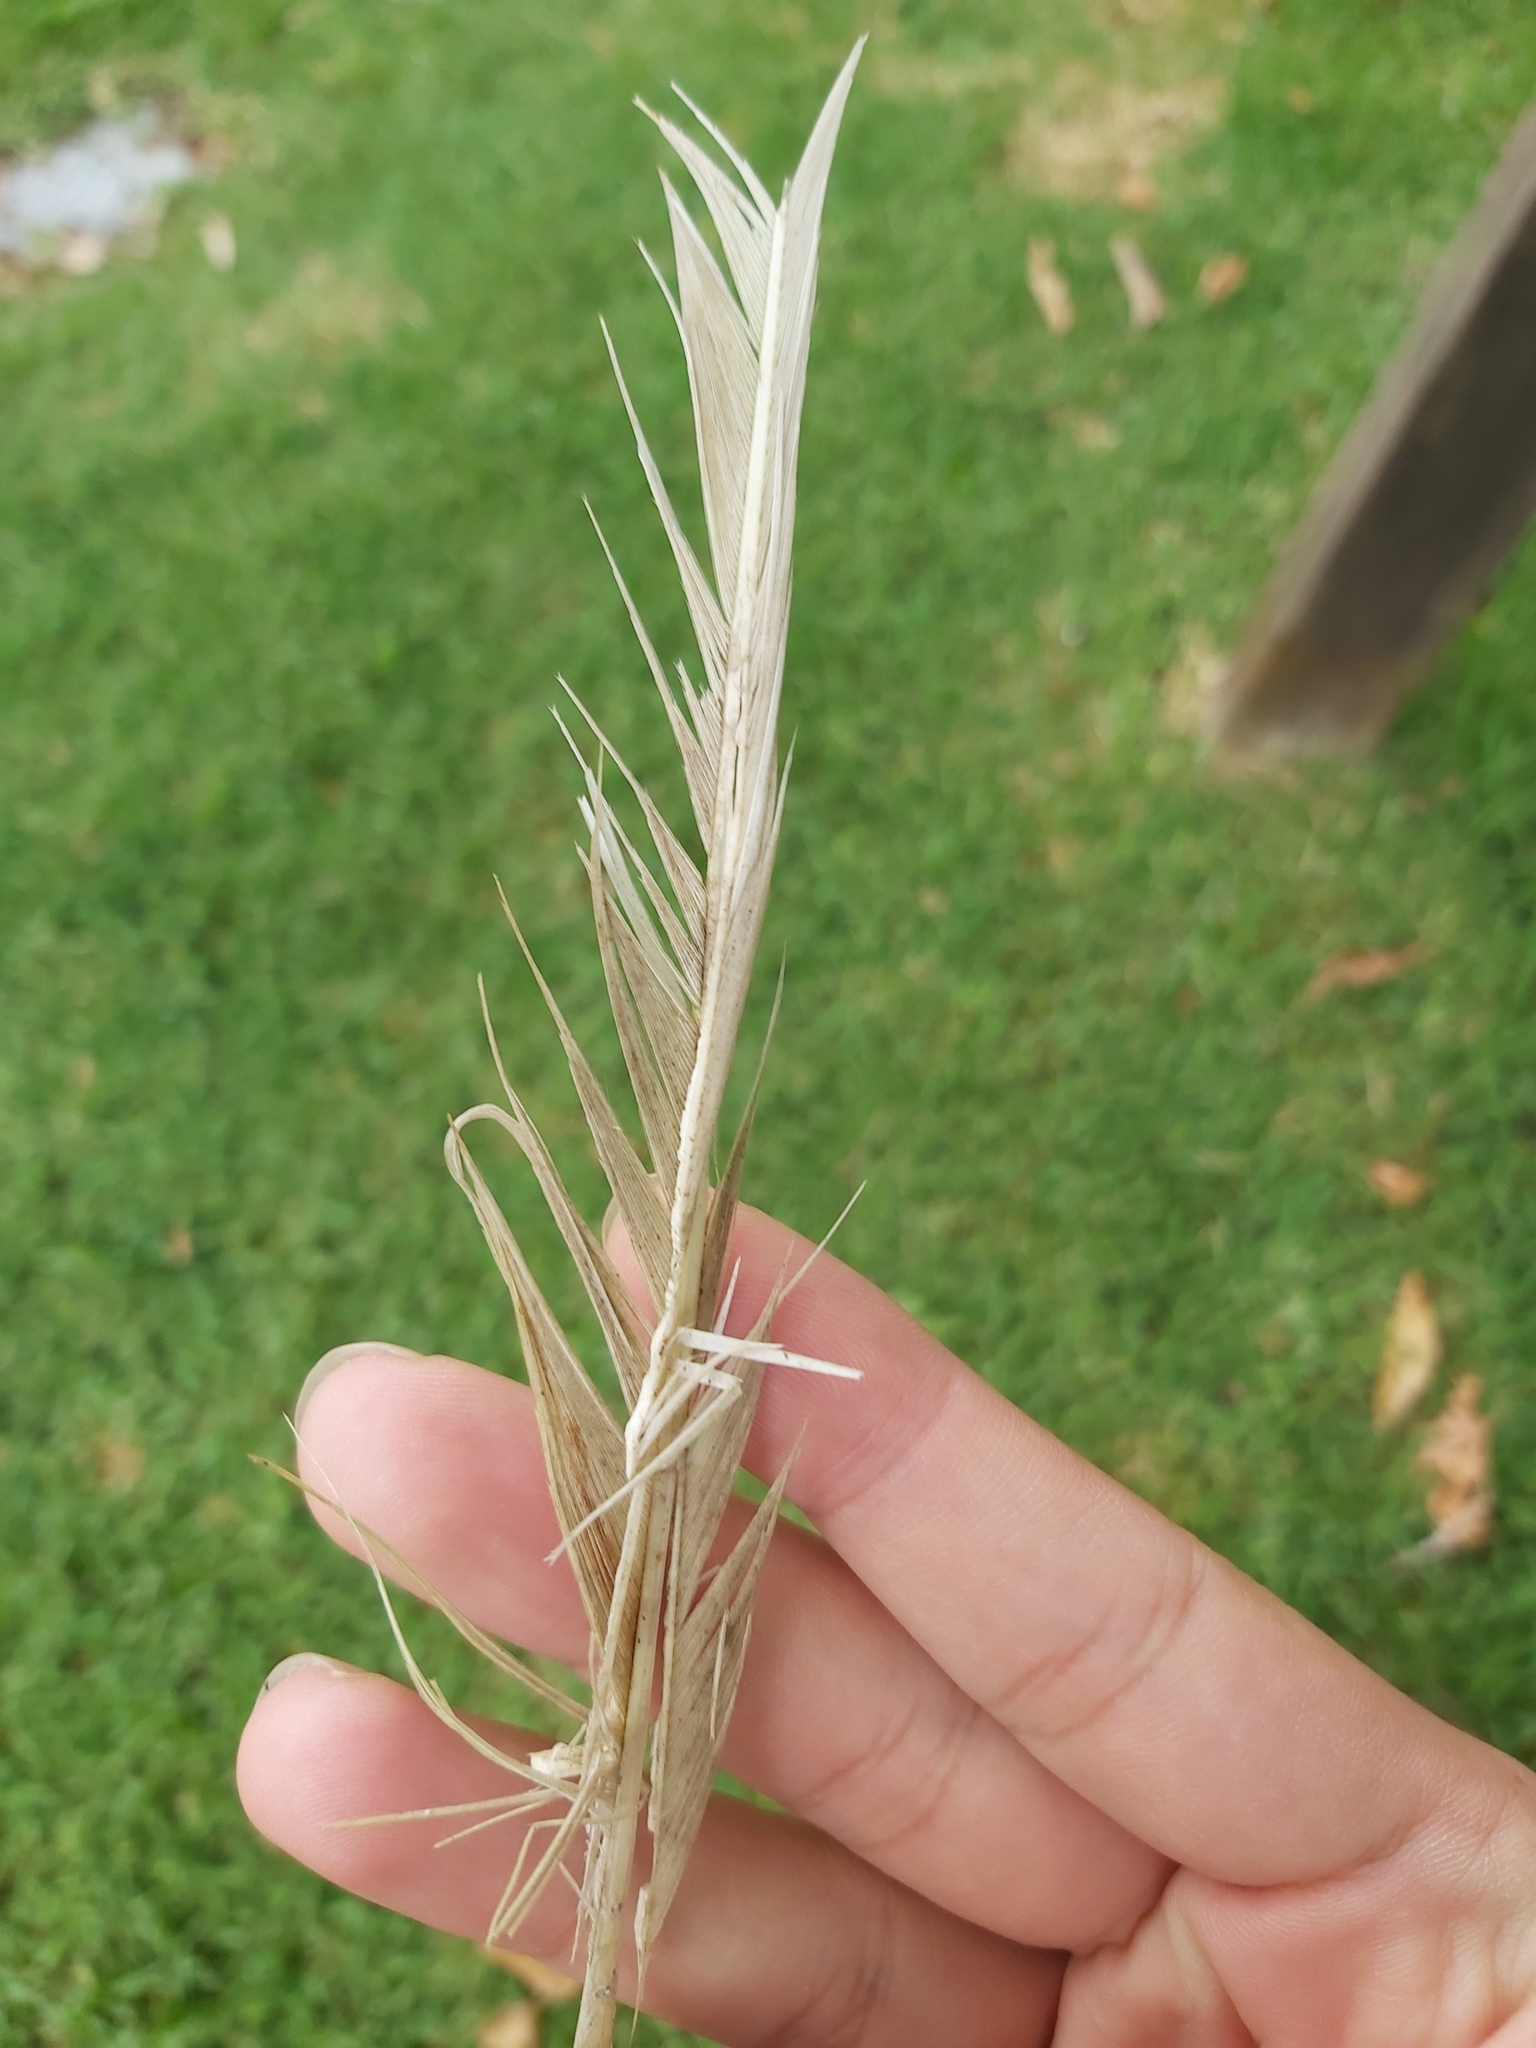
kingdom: Animalia
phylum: Chordata
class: Aves
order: Psittaciformes
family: Psittacidae
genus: Cacatua
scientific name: Cacatua galerita
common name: Sulphur-crested cockatoo
